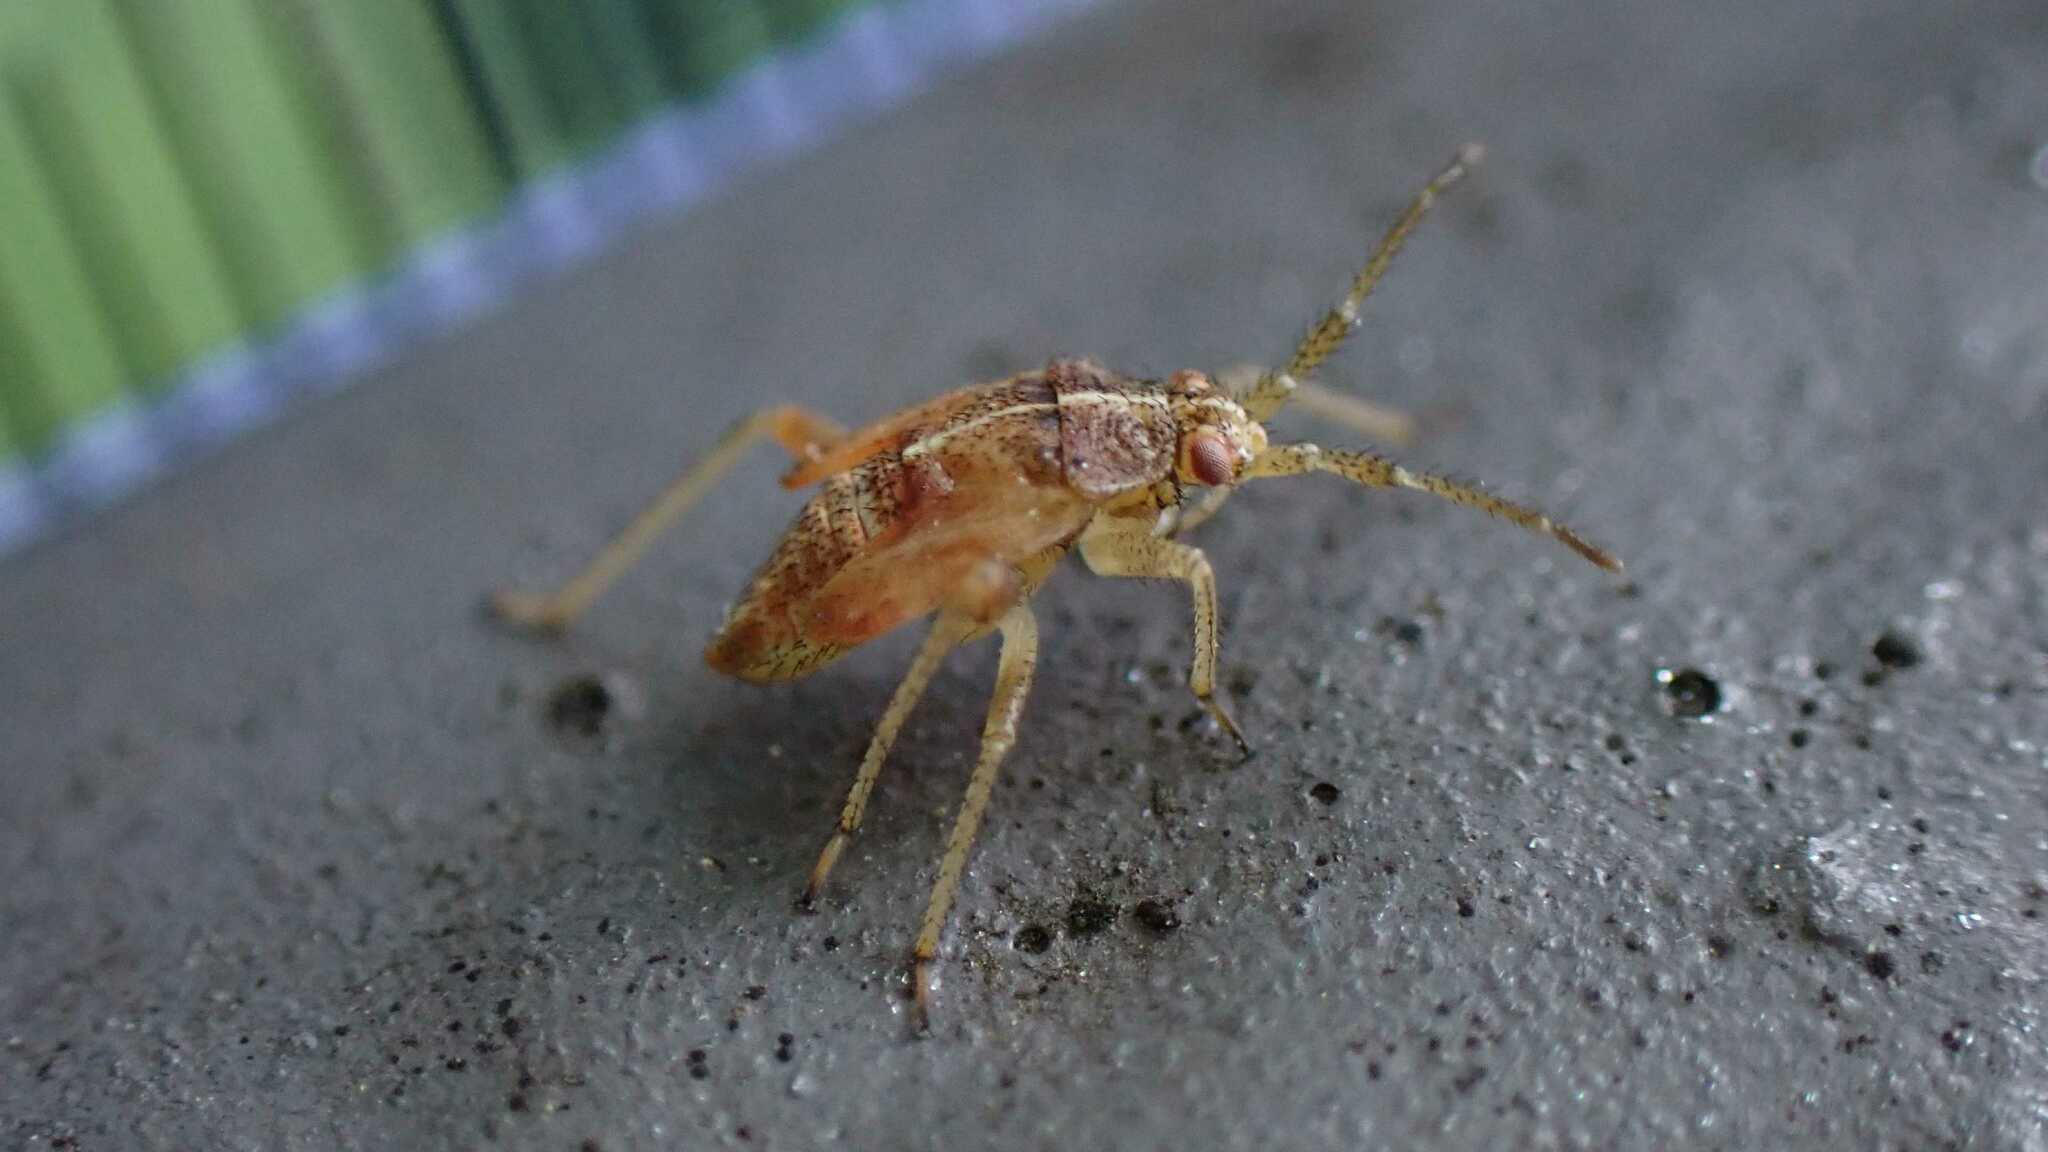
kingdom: Animalia
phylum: Arthropoda
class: Insecta
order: Hemiptera
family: Miridae
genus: Harpocera
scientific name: Harpocera thoracica
